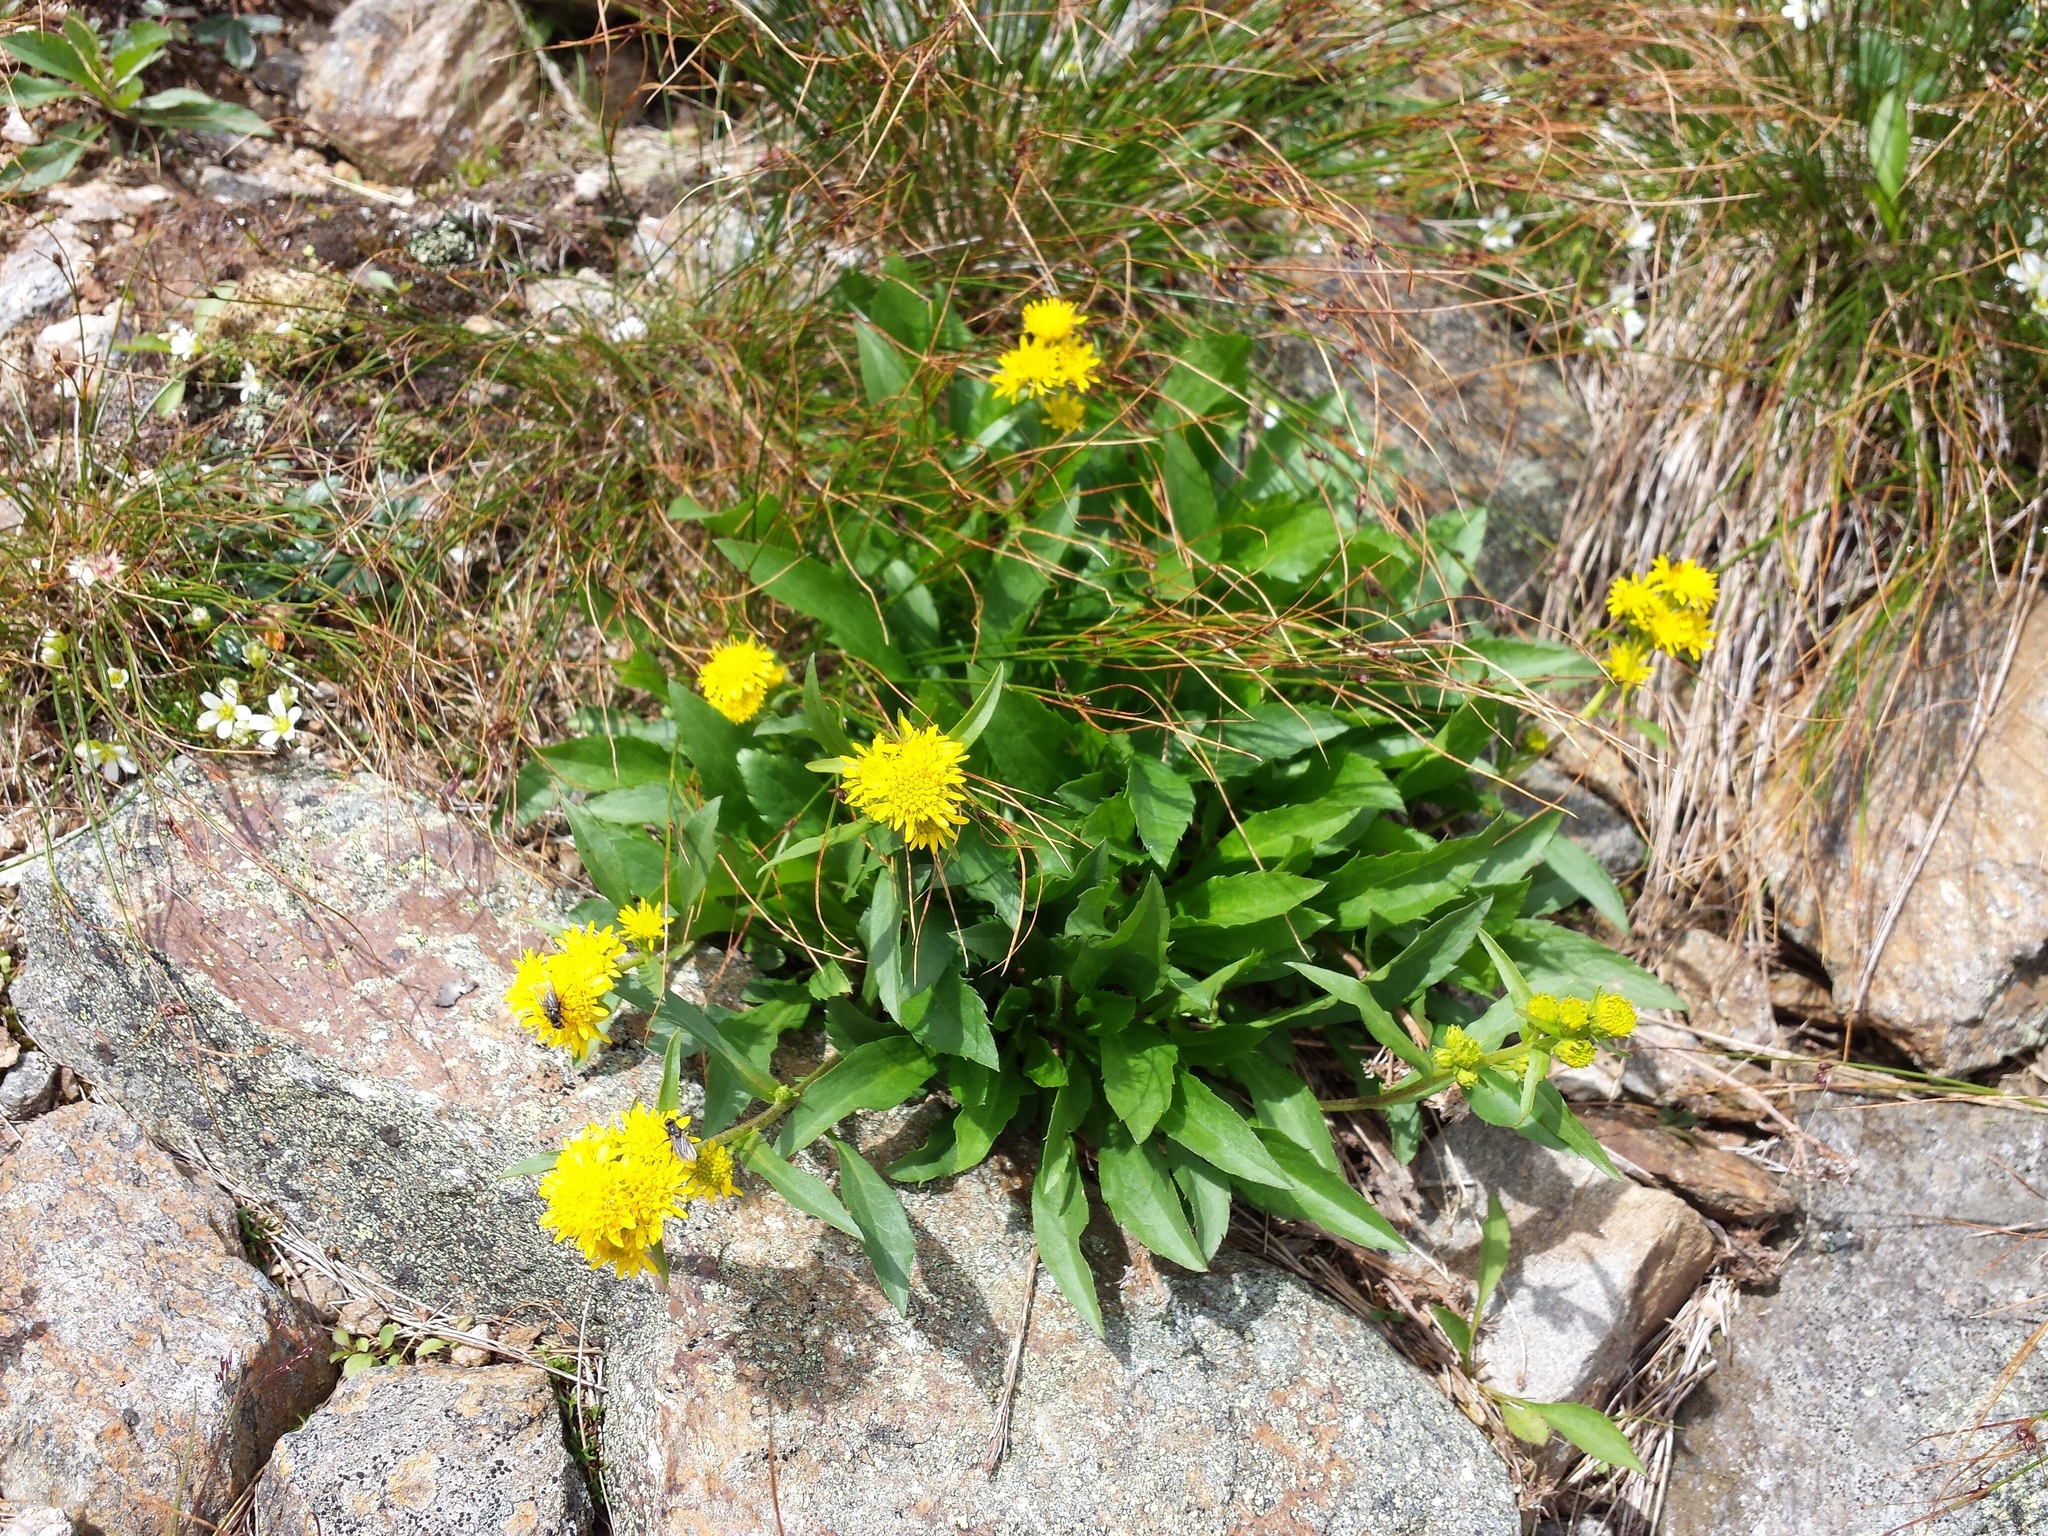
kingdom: Plantae
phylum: Tracheophyta
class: Magnoliopsida
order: Asterales
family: Asteraceae
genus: Solidago
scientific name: Solidago leiocarpa
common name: Cutler's alpine goldenrod
